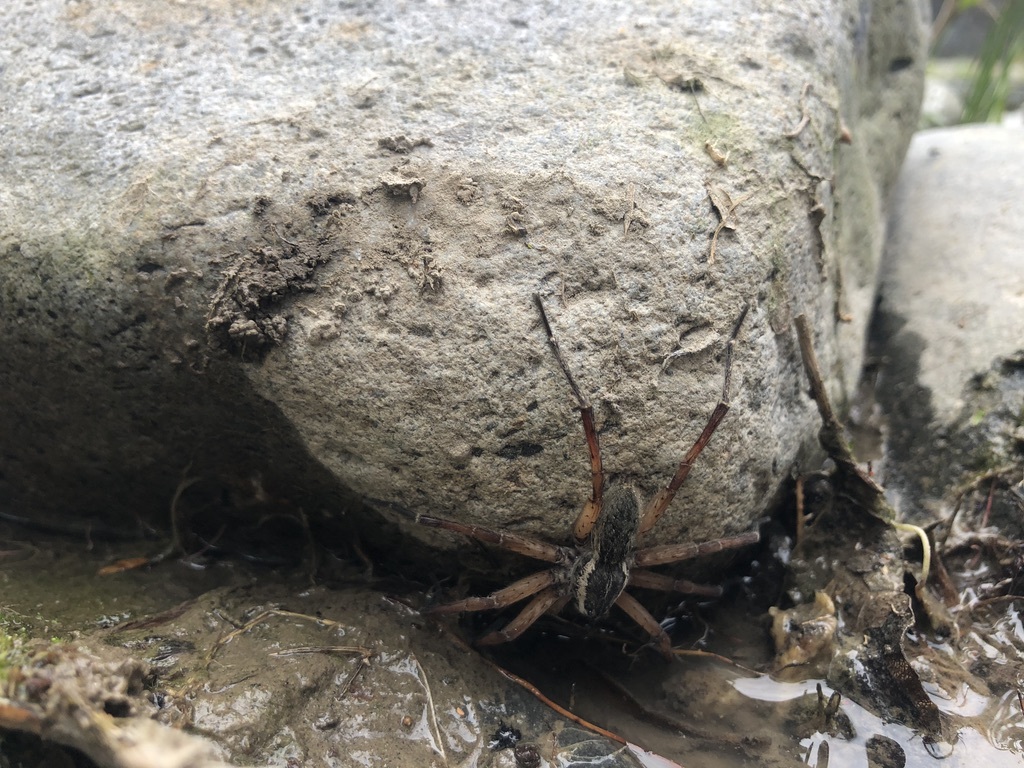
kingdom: Animalia
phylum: Arthropoda
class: Arachnida
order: Araneae
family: Pisauridae
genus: Dolomedes
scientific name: Dolomedes aquaticus
